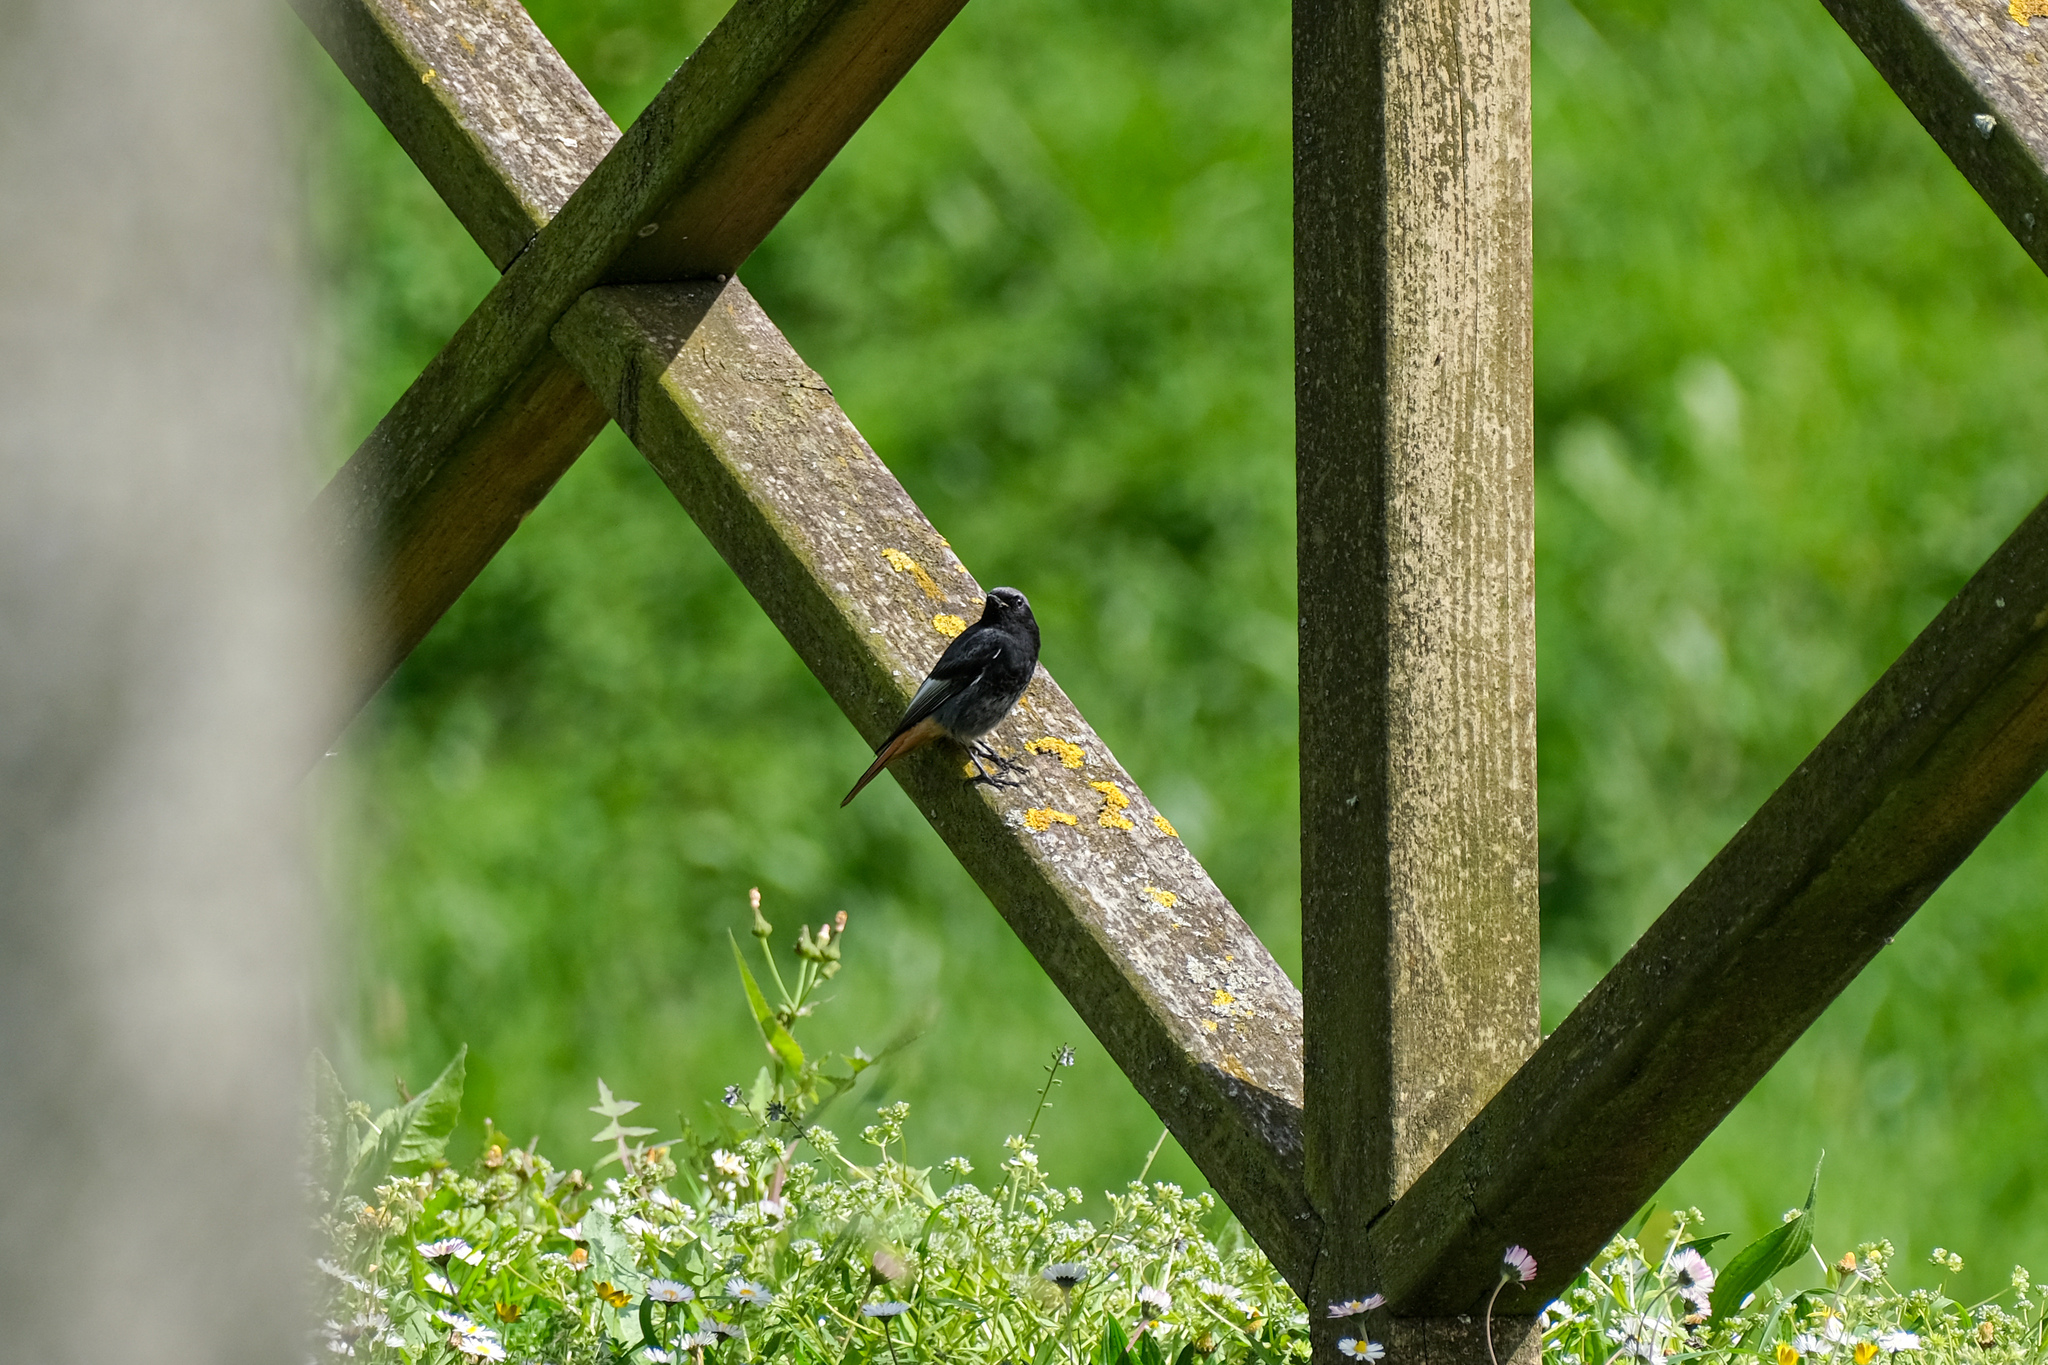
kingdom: Animalia
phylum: Chordata
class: Aves
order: Passeriformes
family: Muscicapidae
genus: Phoenicurus
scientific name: Phoenicurus ochruros
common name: Black redstart
